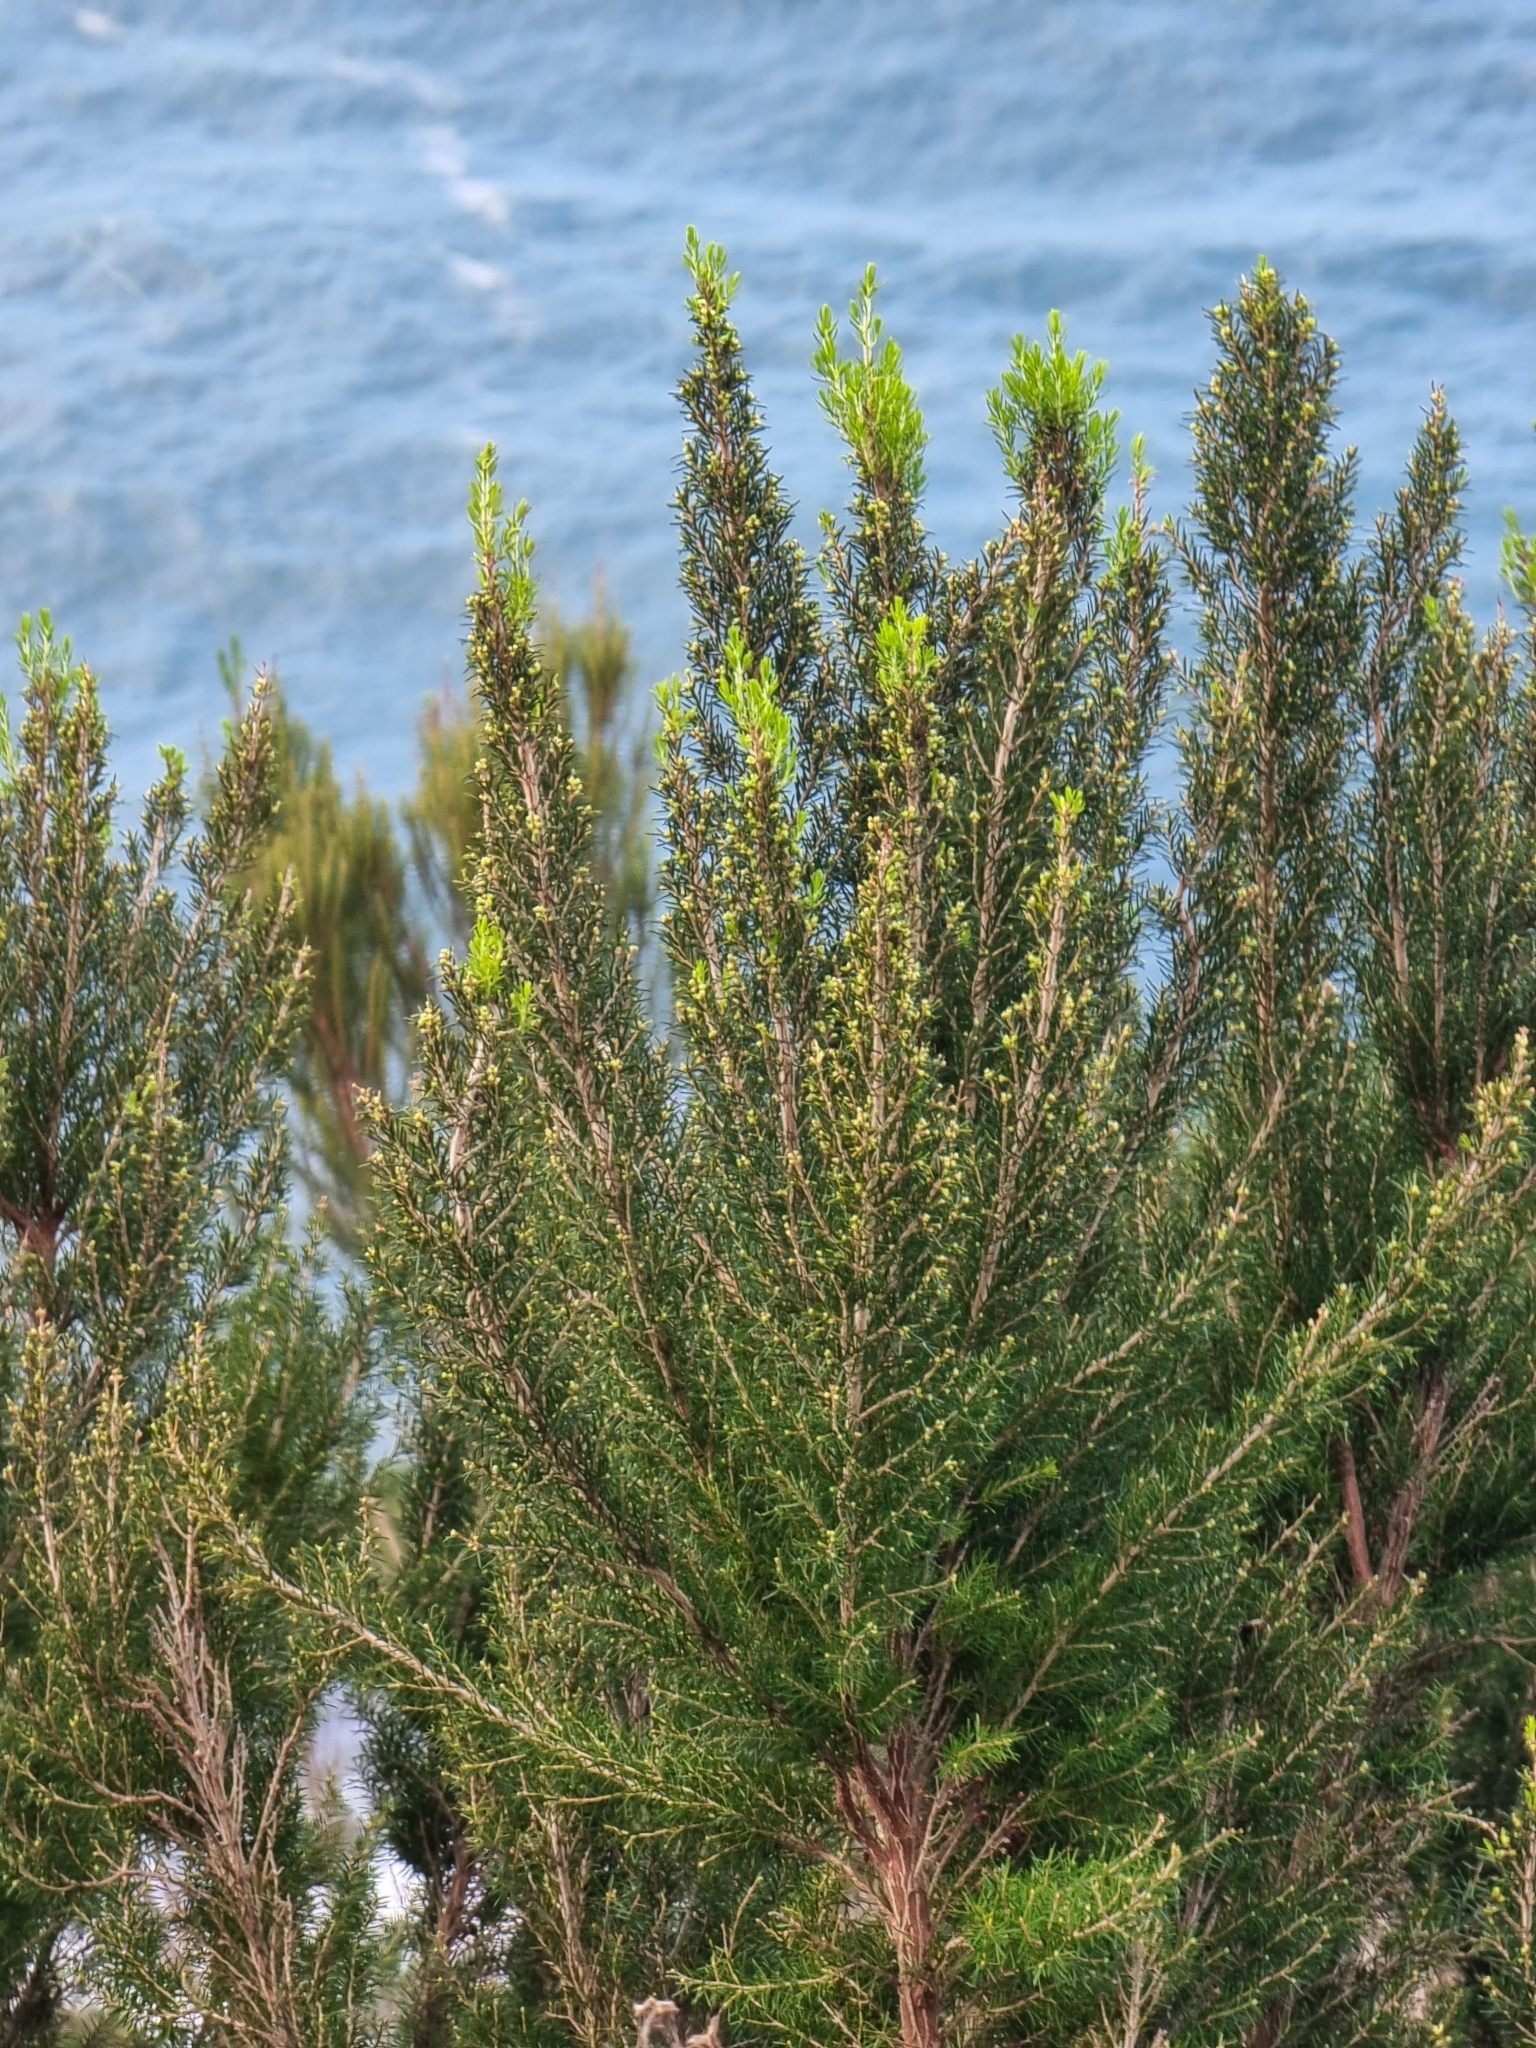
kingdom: Plantae
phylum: Tracheophyta
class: Magnoliopsida
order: Ericales
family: Ericaceae
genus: Erica
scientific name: Erica canariensis
